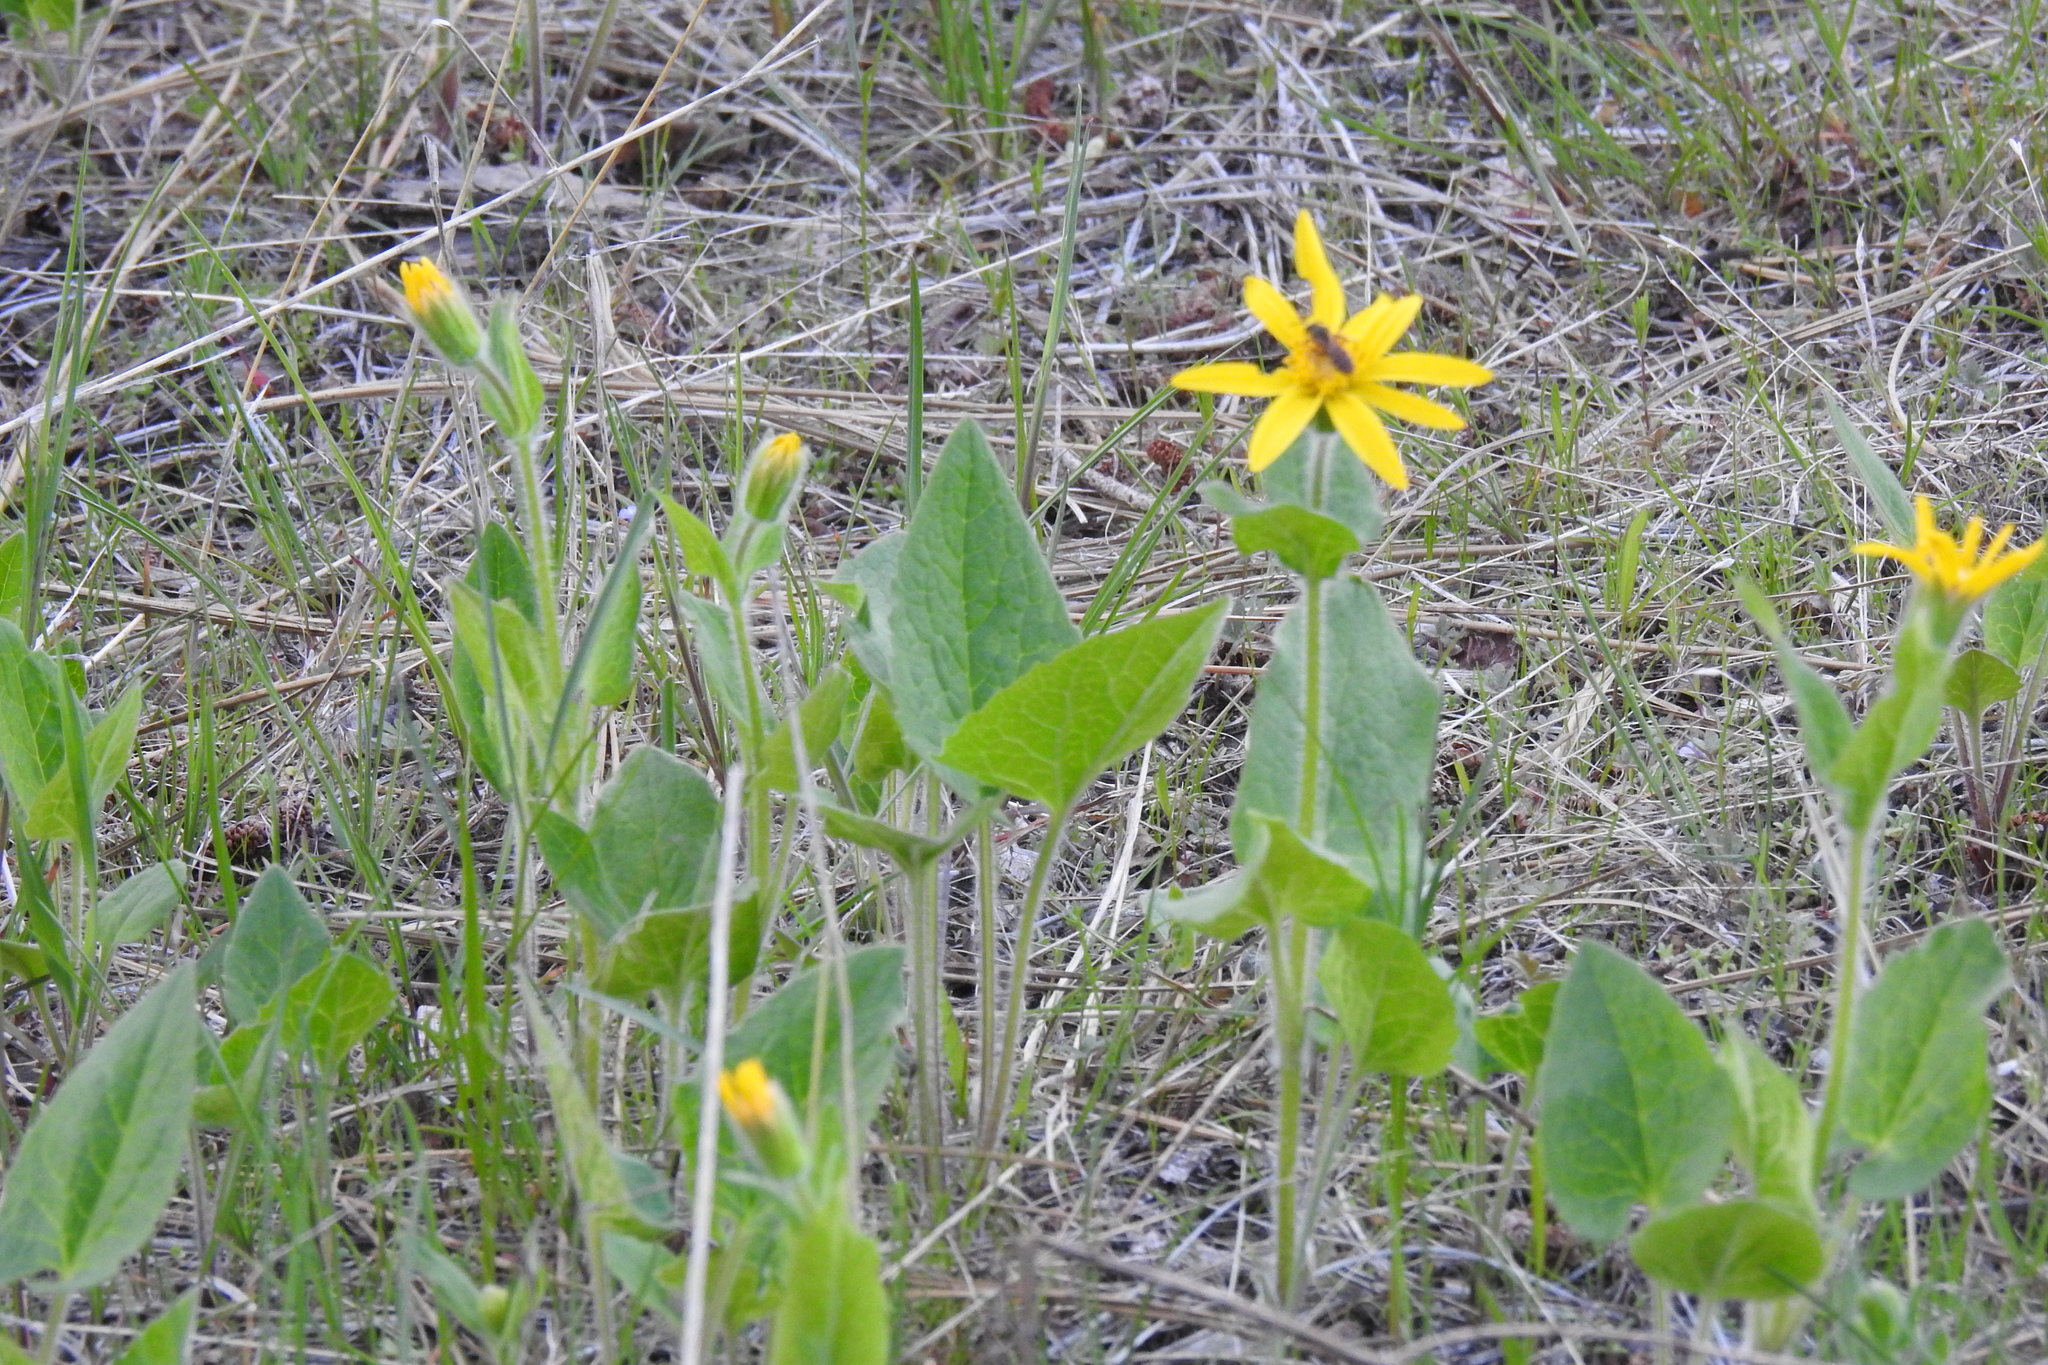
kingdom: Plantae
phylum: Tracheophyta
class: Magnoliopsida
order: Asterales
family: Asteraceae
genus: Arnica
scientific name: Arnica cordifolia
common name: Heart-leaf arnica
